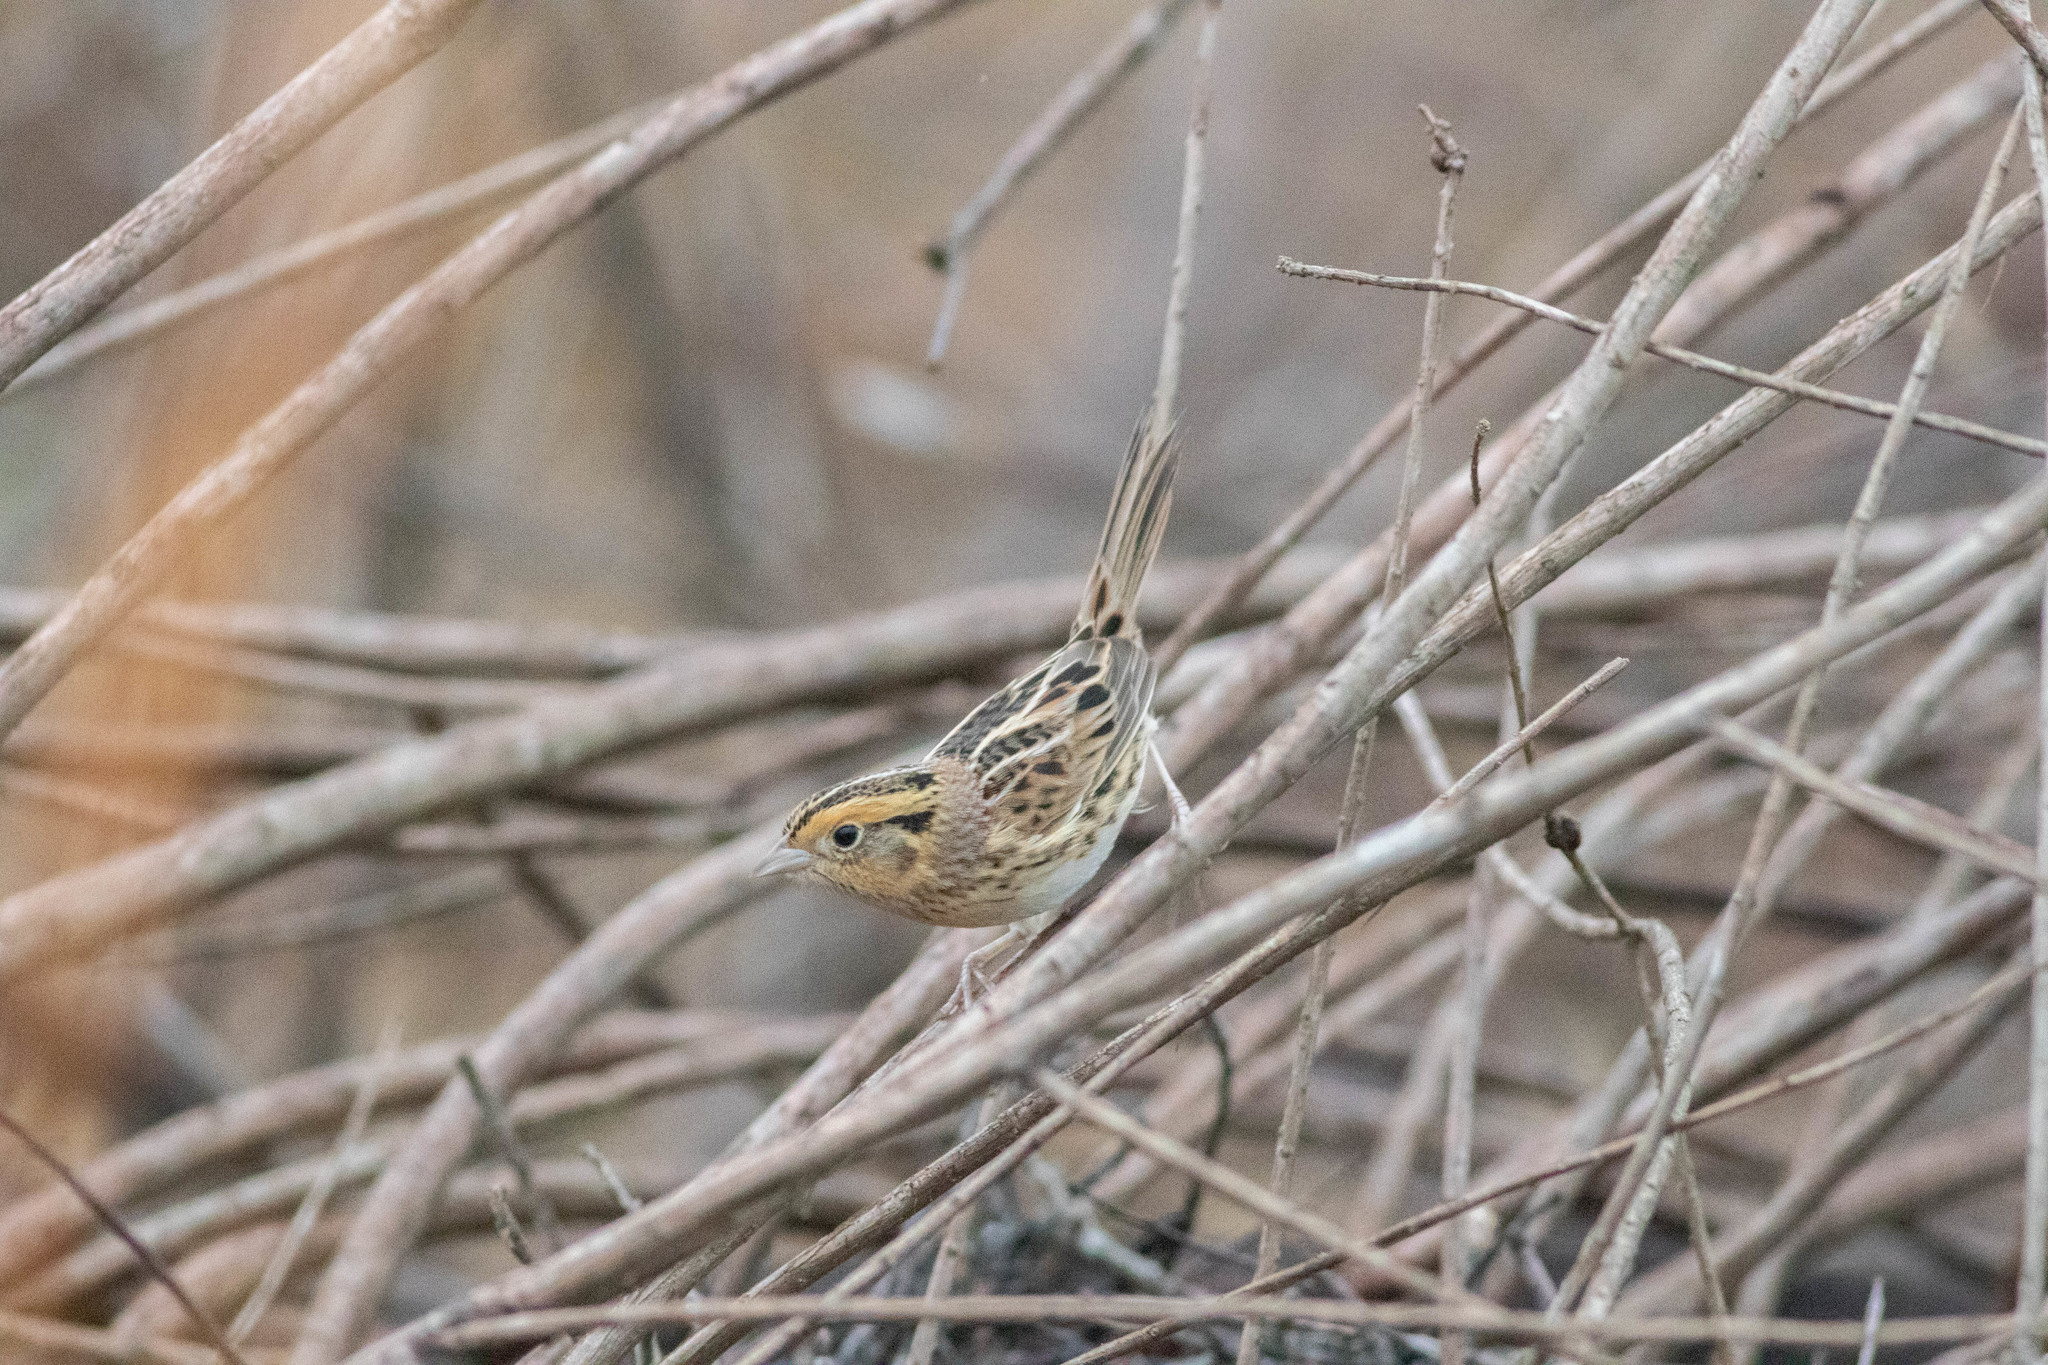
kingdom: Animalia
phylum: Chordata
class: Aves
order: Passeriformes
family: Passerellidae
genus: Ammospiza
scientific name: Ammospiza leconteii
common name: Le conte's sparrow
